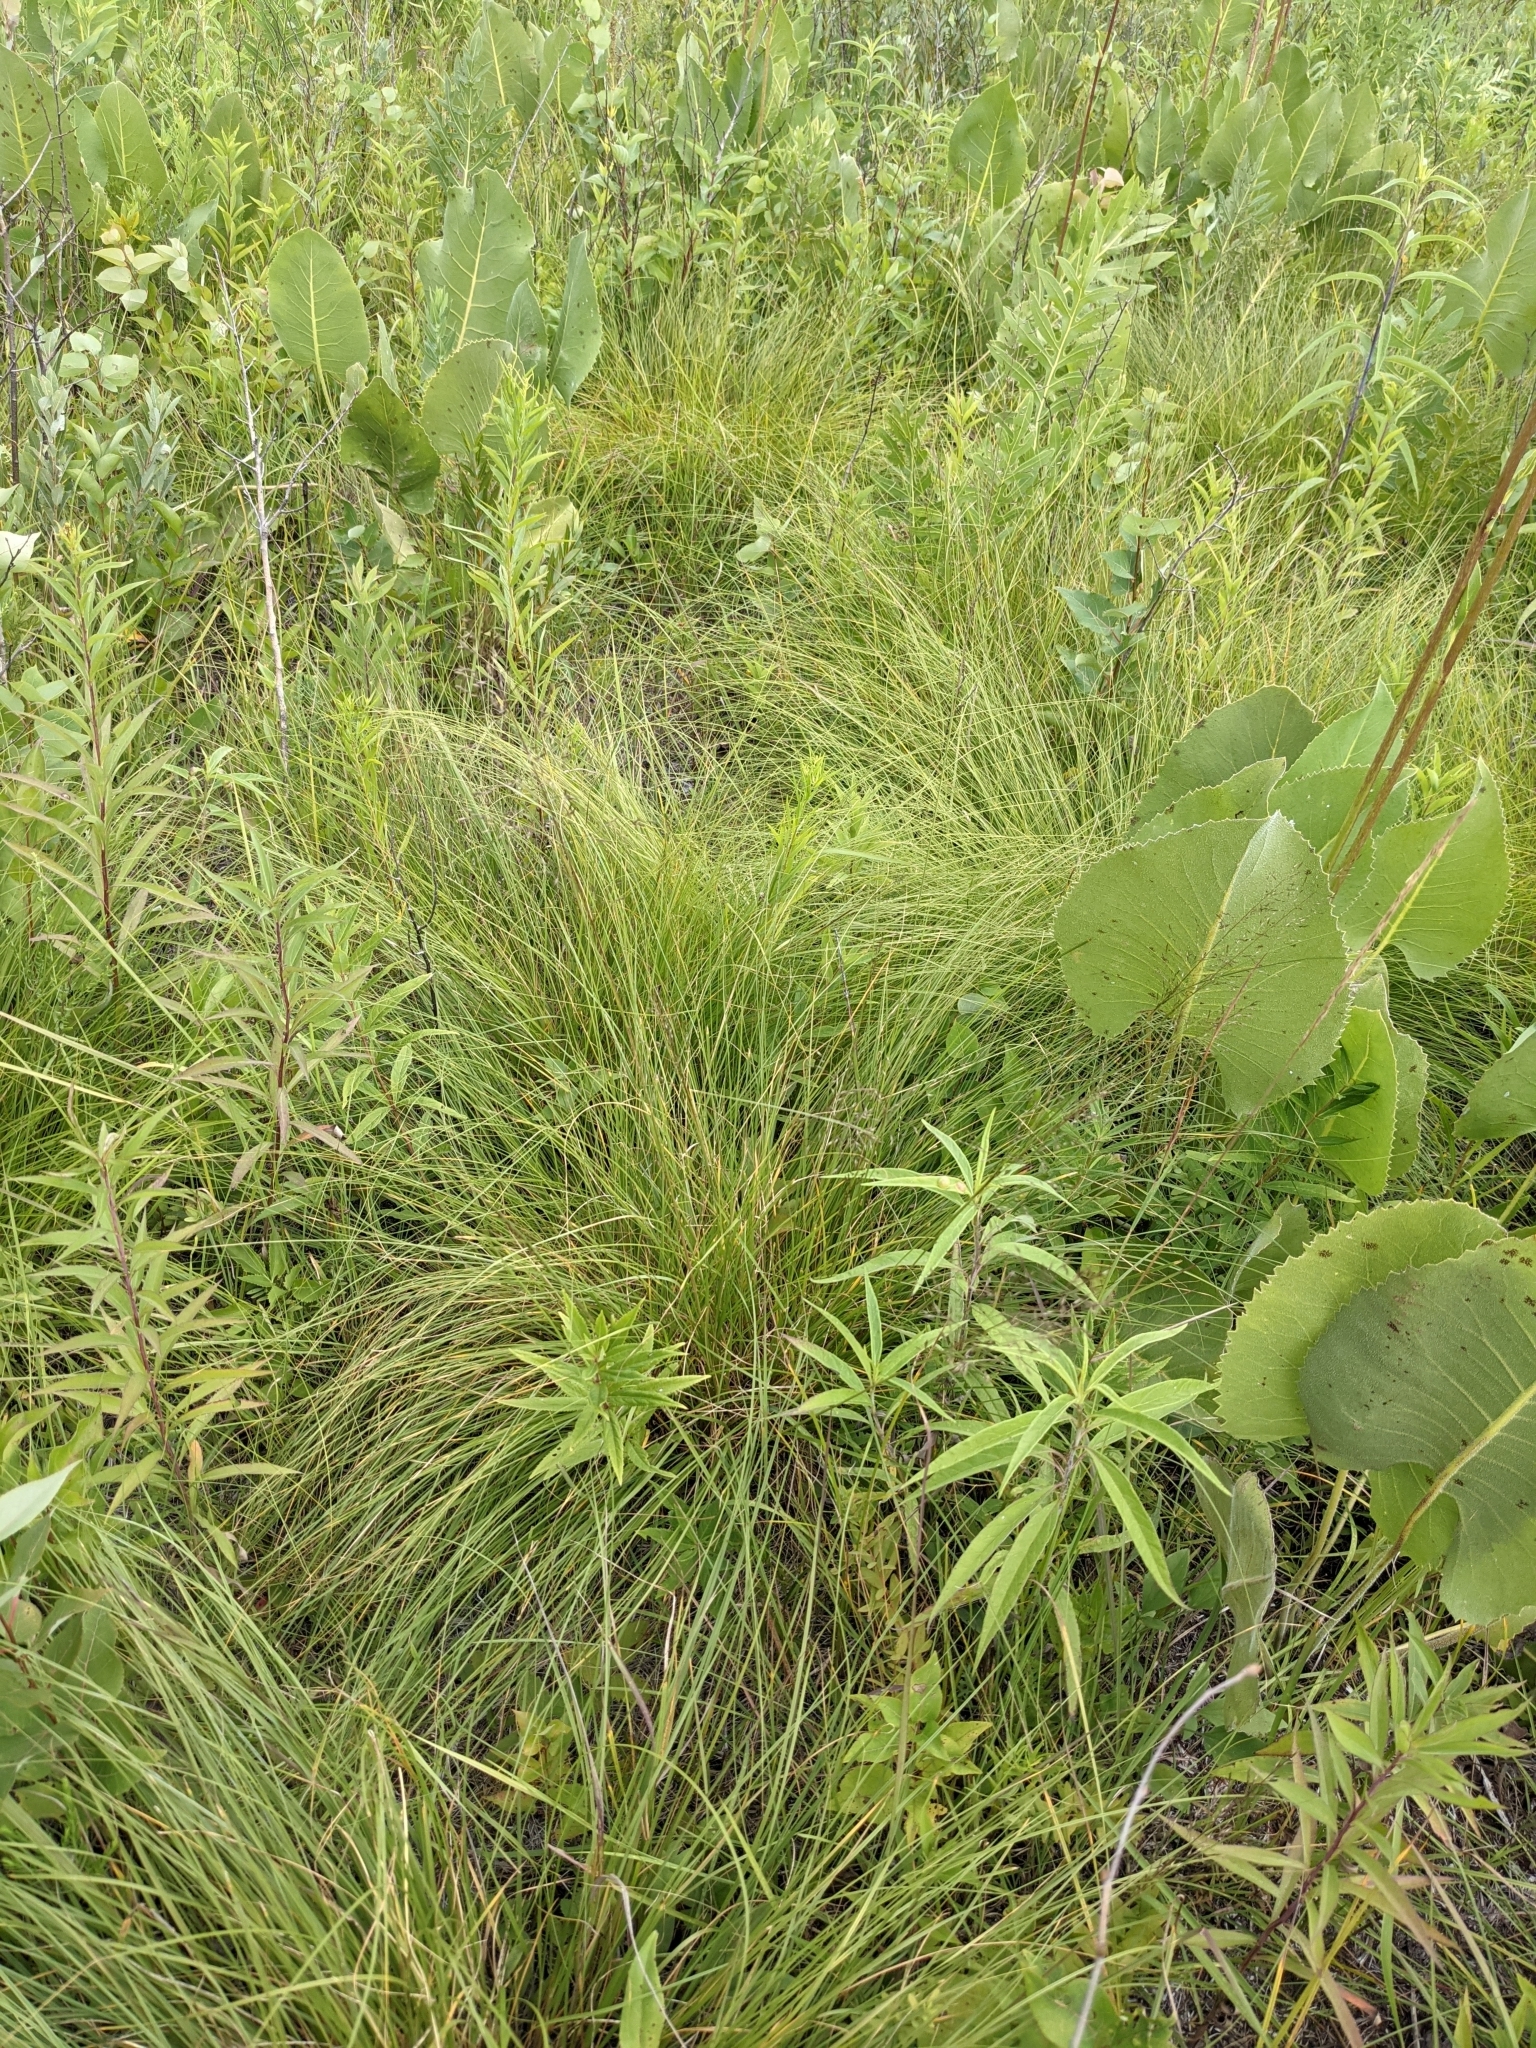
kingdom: Plantae
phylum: Tracheophyta
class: Liliopsida
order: Poales
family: Poaceae
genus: Sporobolus
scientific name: Sporobolus heterolepis
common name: Prairie dropseed
